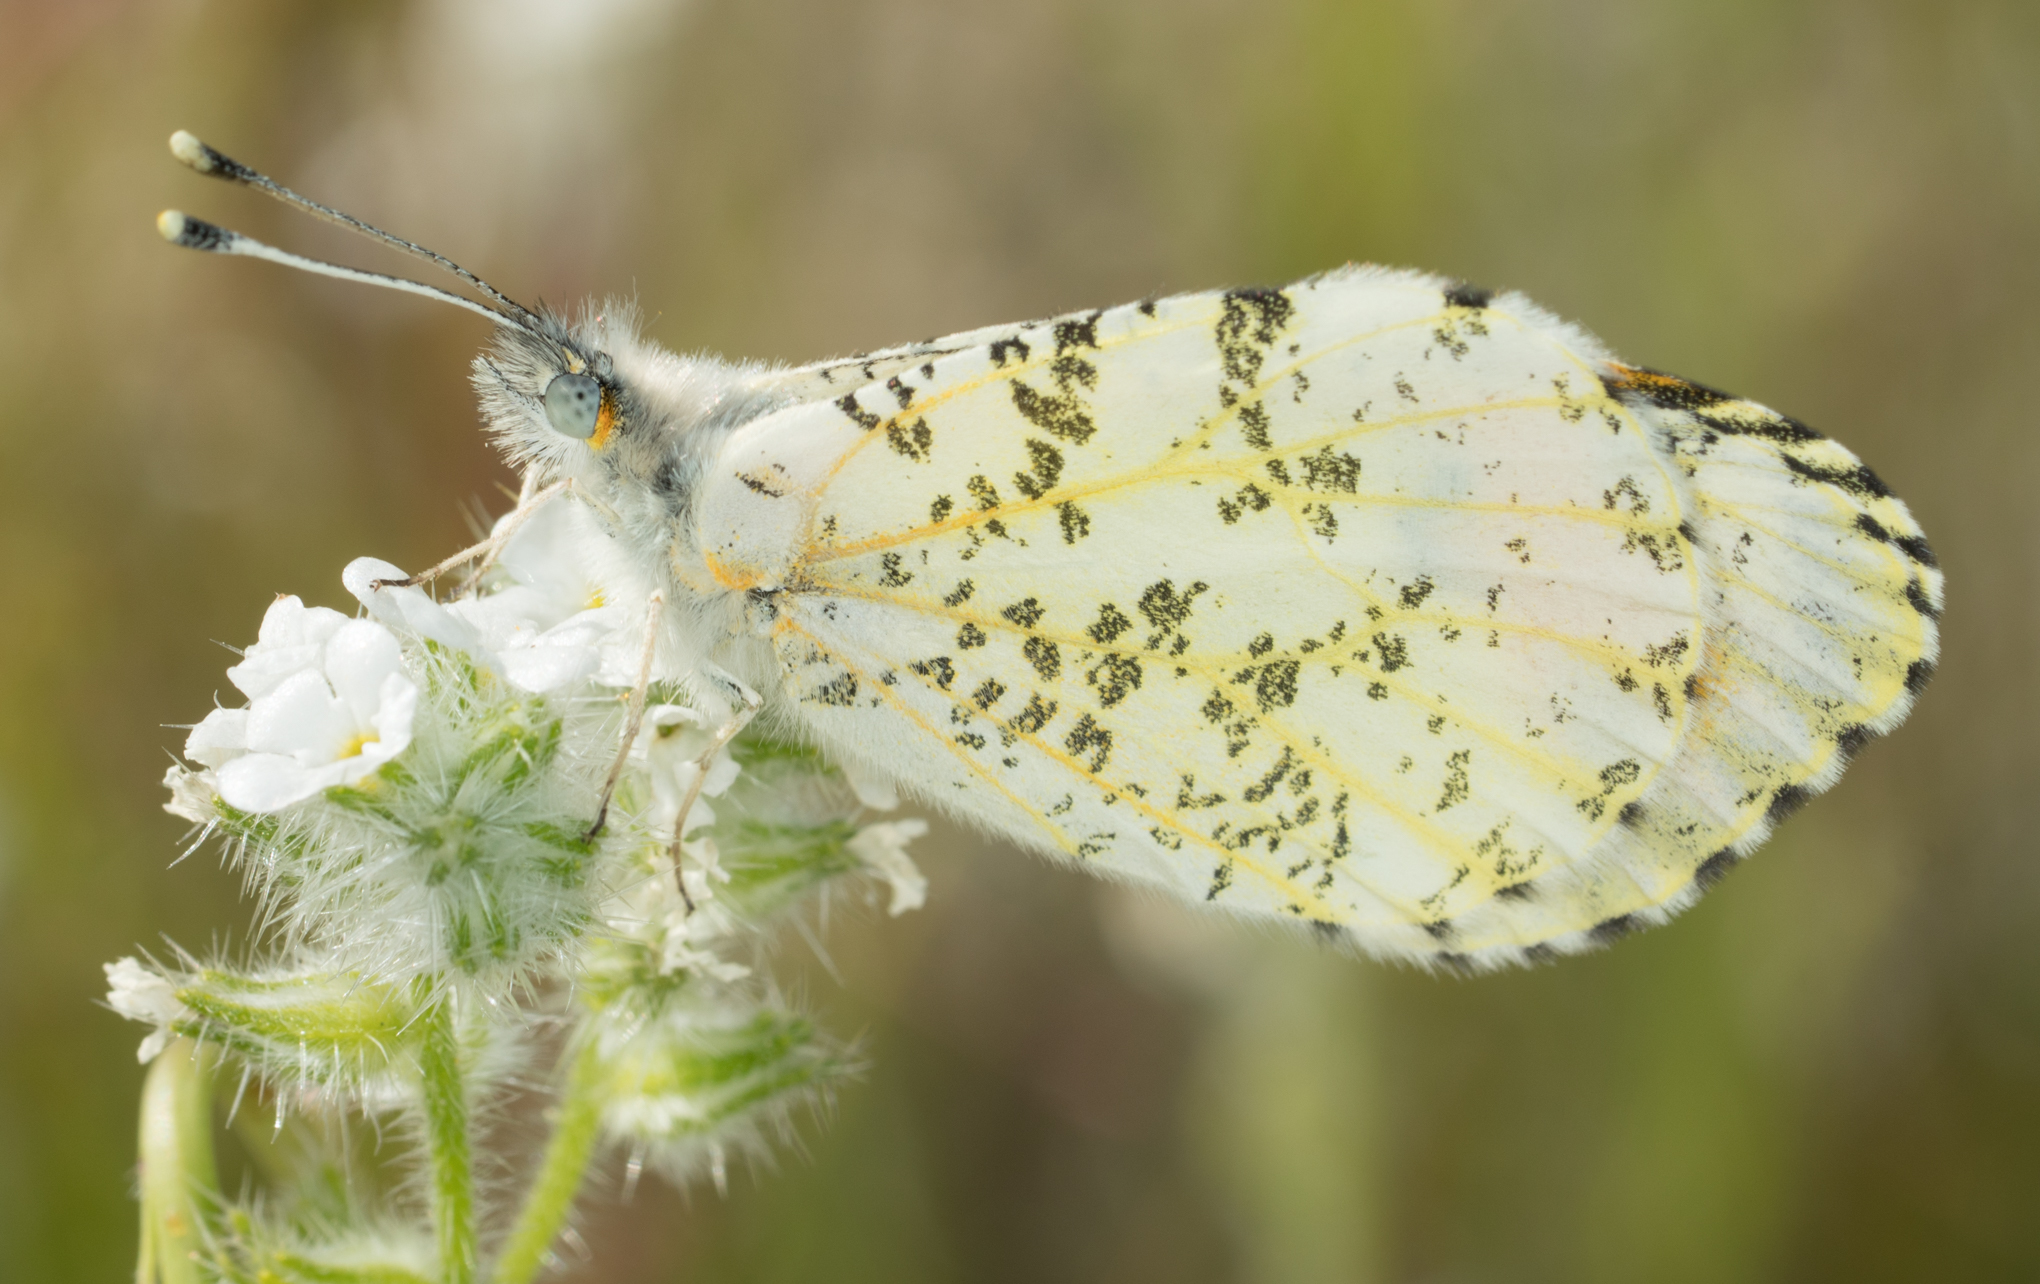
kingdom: Animalia
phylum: Arthropoda
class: Insecta
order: Lepidoptera
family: Pieridae
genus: Anthocharis
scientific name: Anthocharis sara
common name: Sara's orangetip
